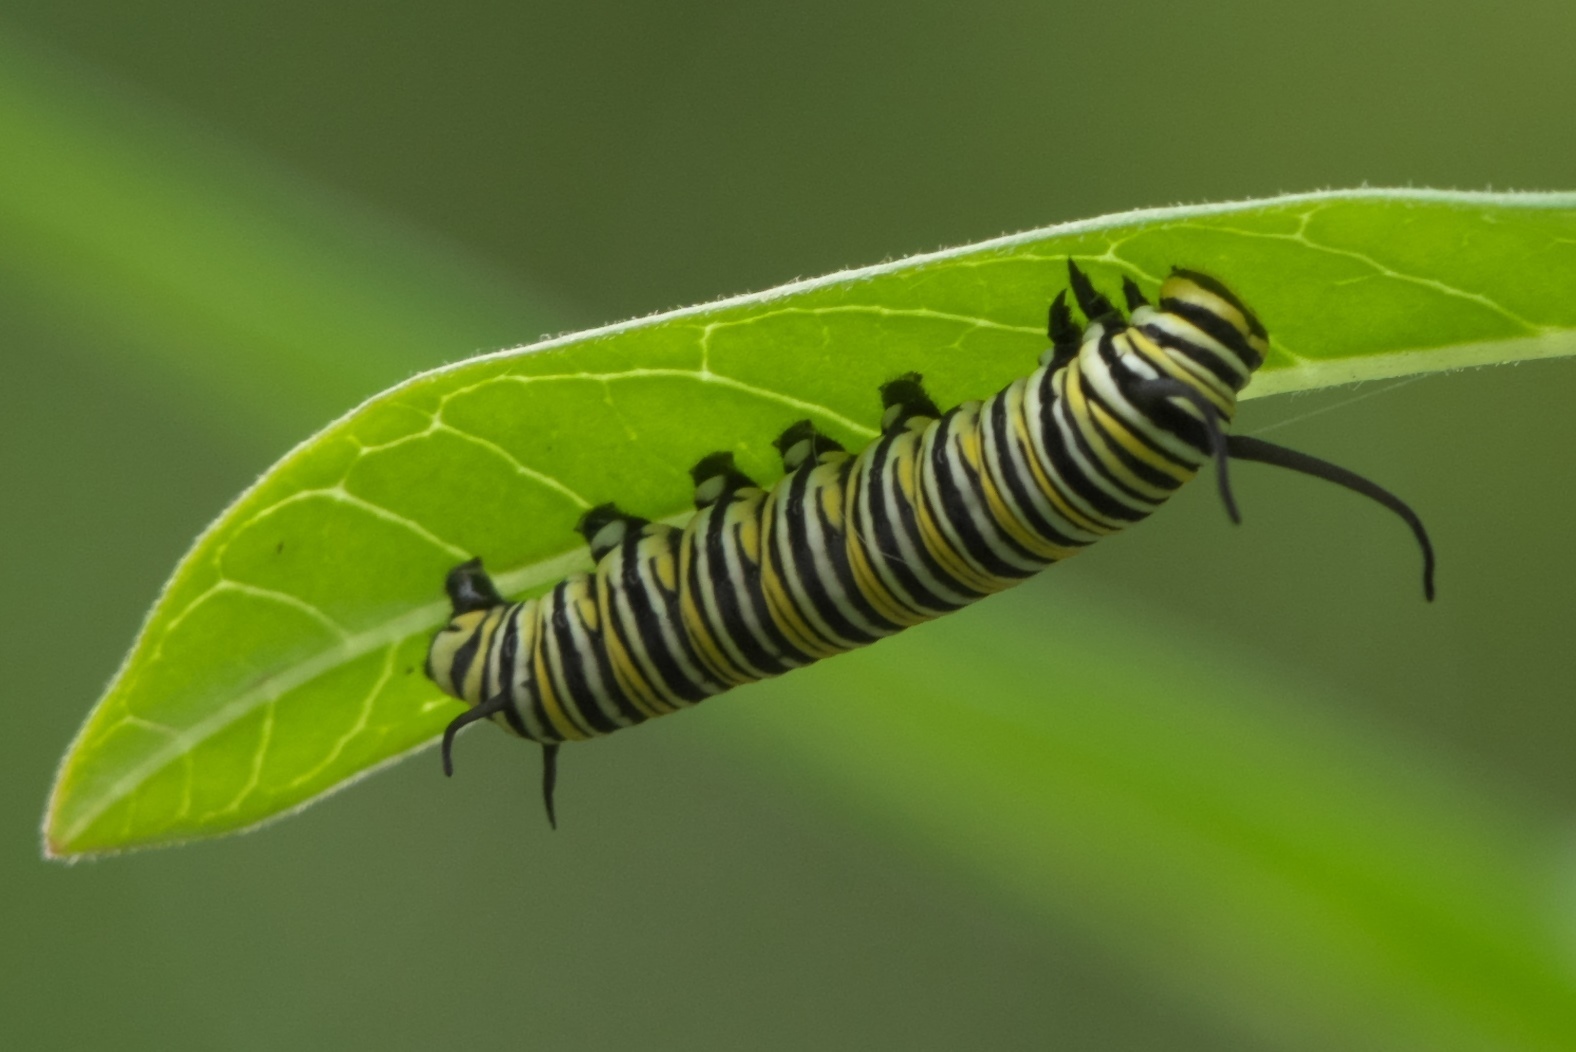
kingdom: Animalia
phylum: Arthropoda
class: Insecta
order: Lepidoptera
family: Nymphalidae
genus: Danaus
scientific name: Danaus plexippus
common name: Monarch
